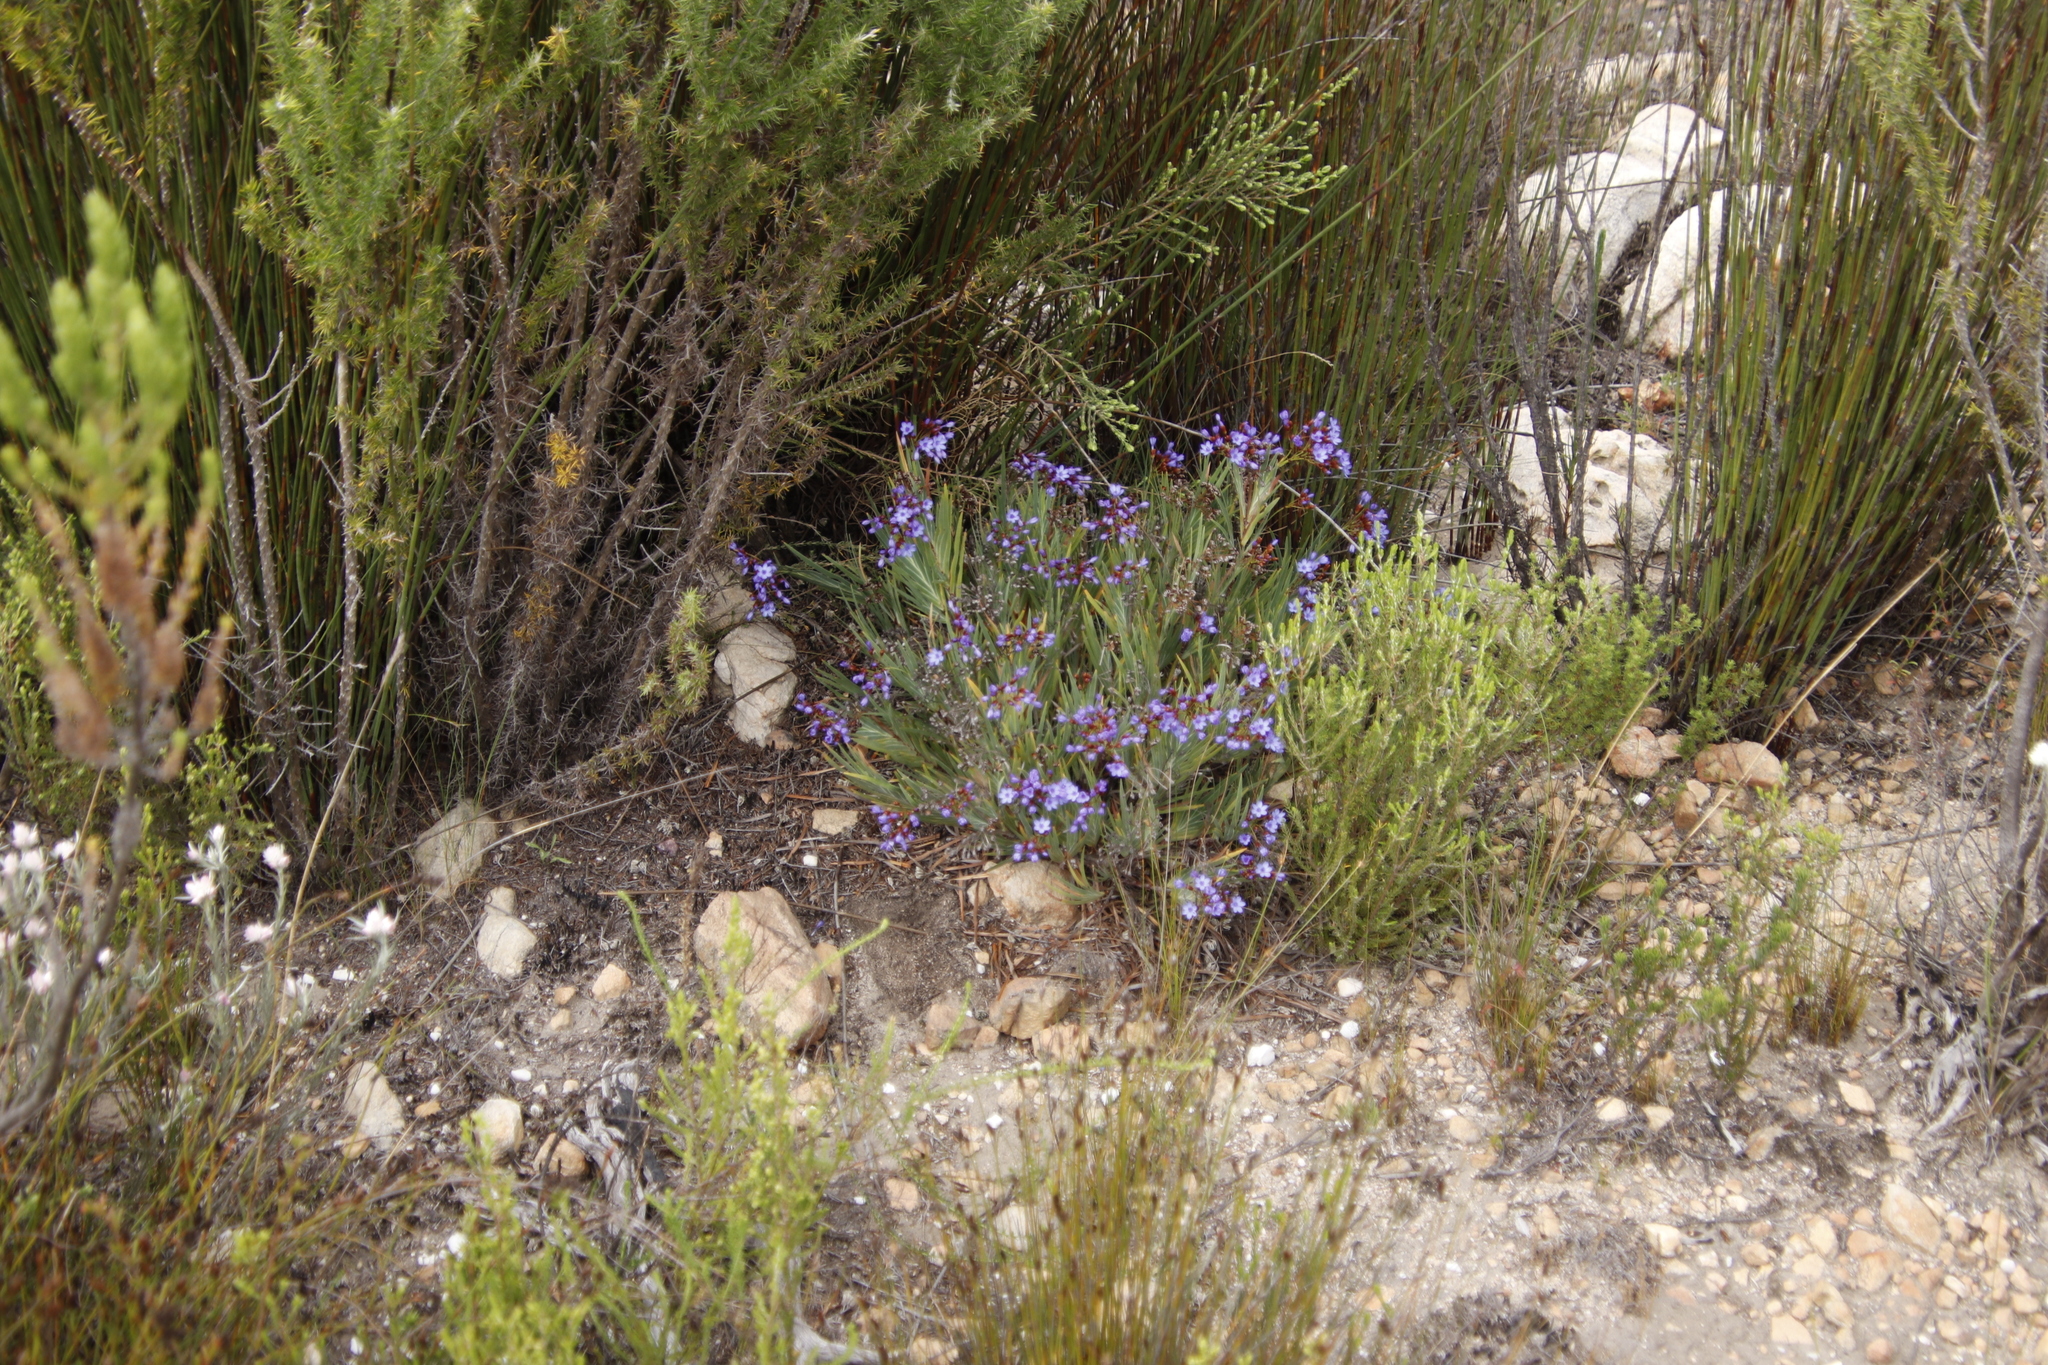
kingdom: Plantae
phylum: Tracheophyta
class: Liliopsida
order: Asparagales
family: Iridaceae
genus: Nivenia
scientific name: Nivenia binata
